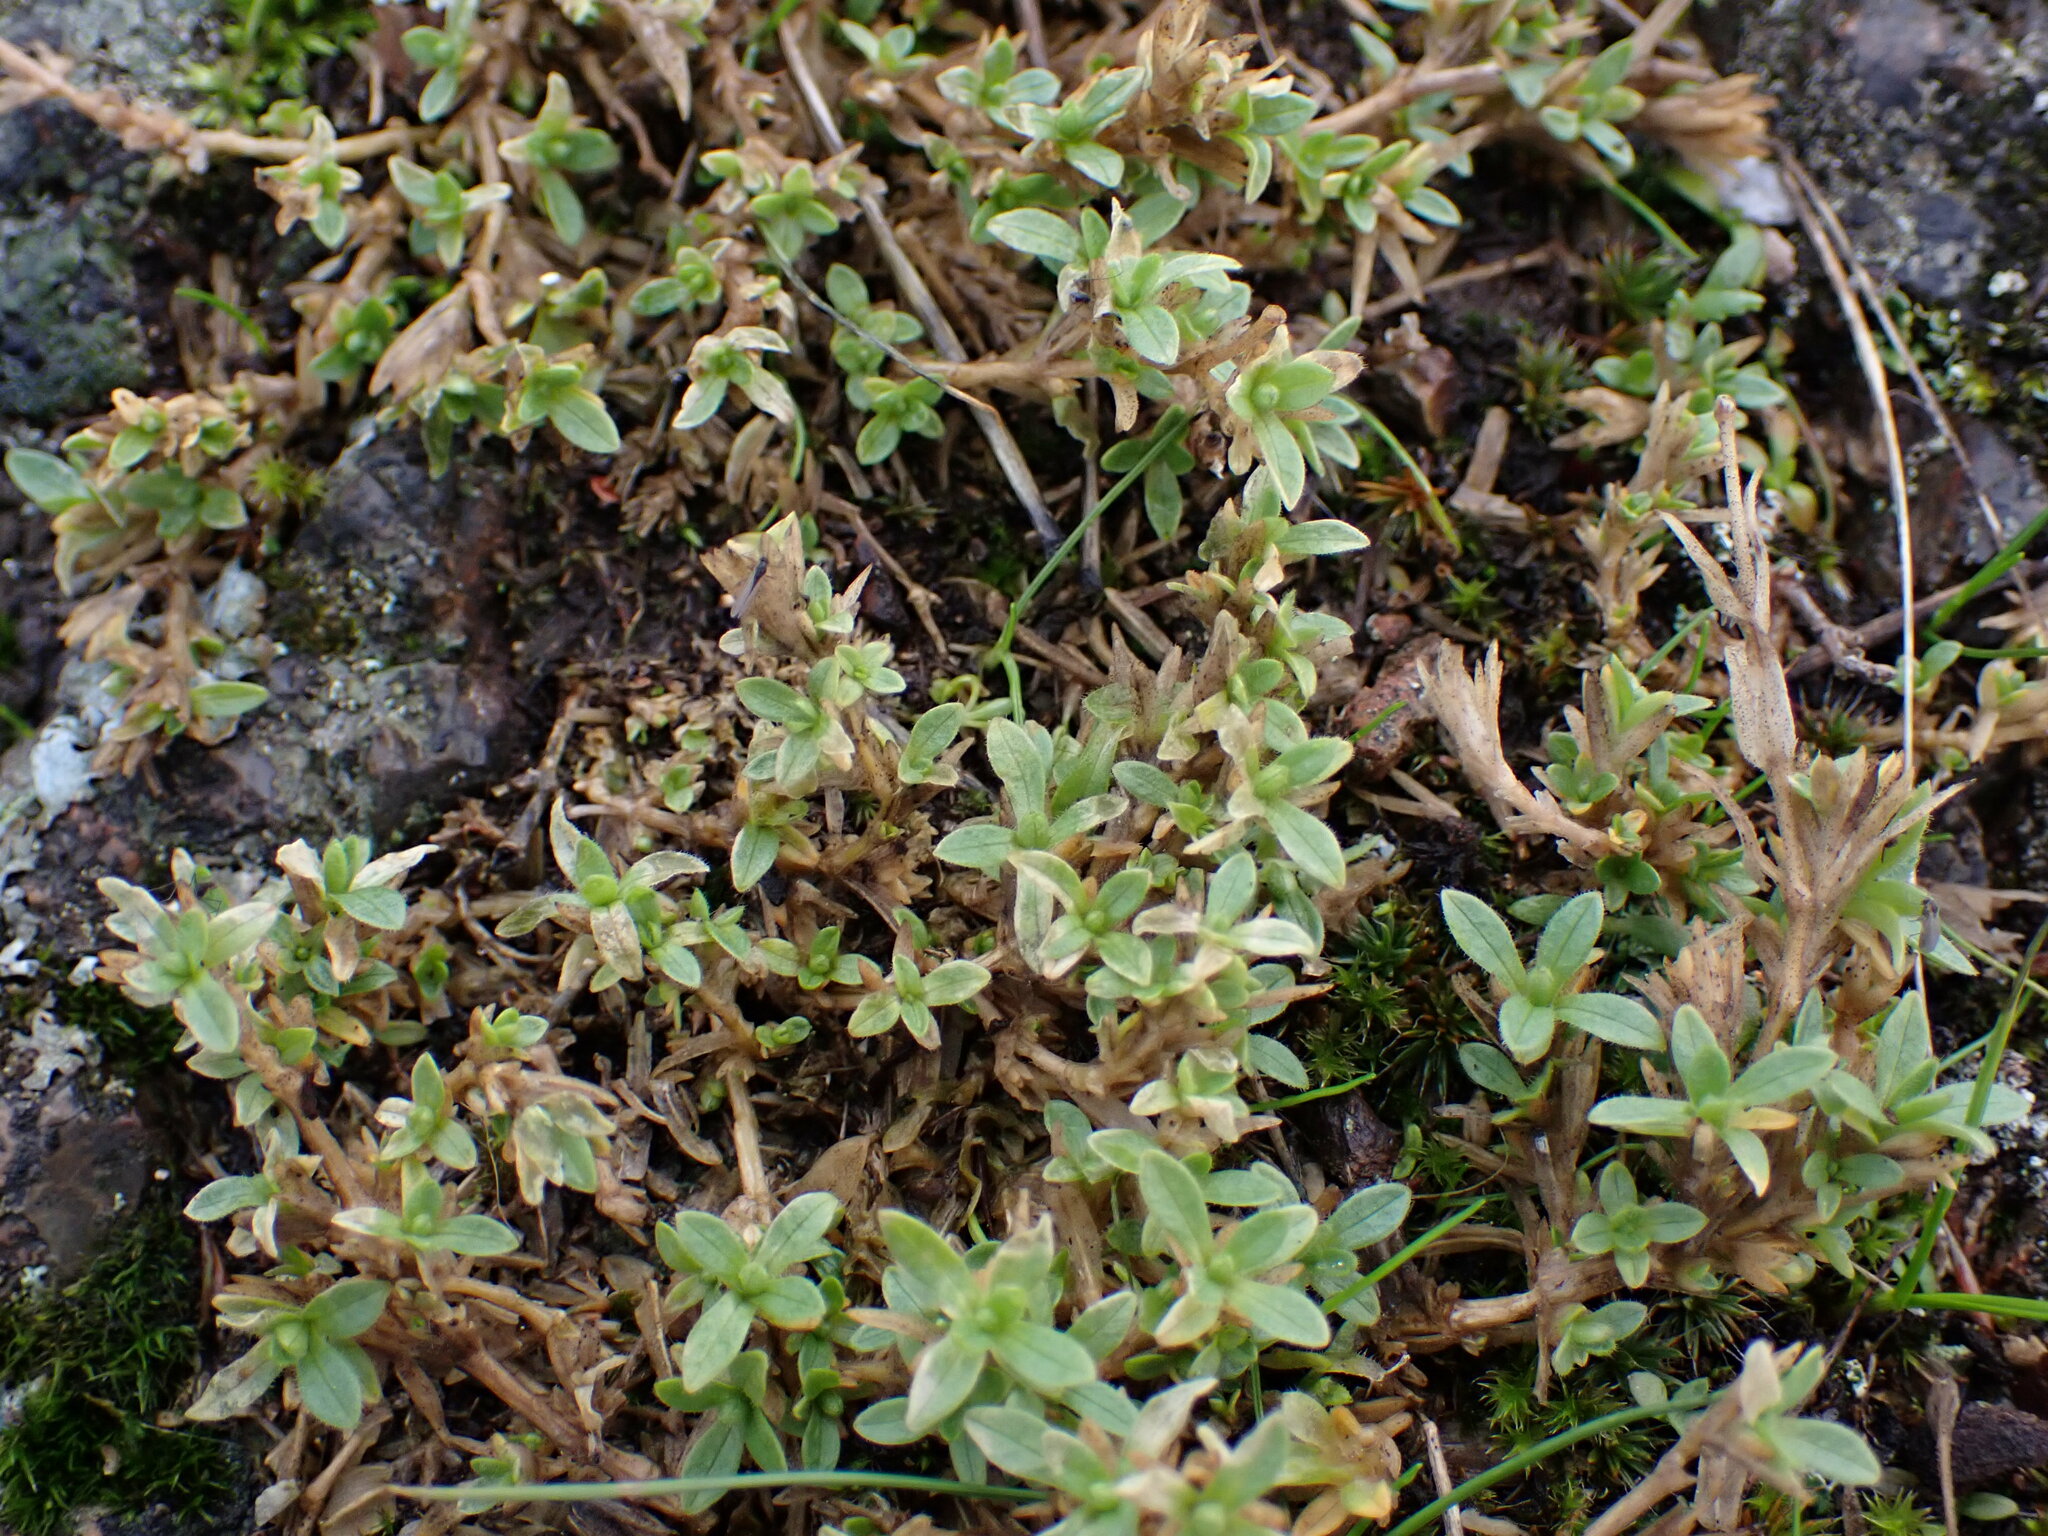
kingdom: Plantae
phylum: Tracheophyta
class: Magnoliopsida
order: Caryophyllales
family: Caryophyllaceae
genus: Cerastium
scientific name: Cerastium arvense
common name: Field mouse-ear
